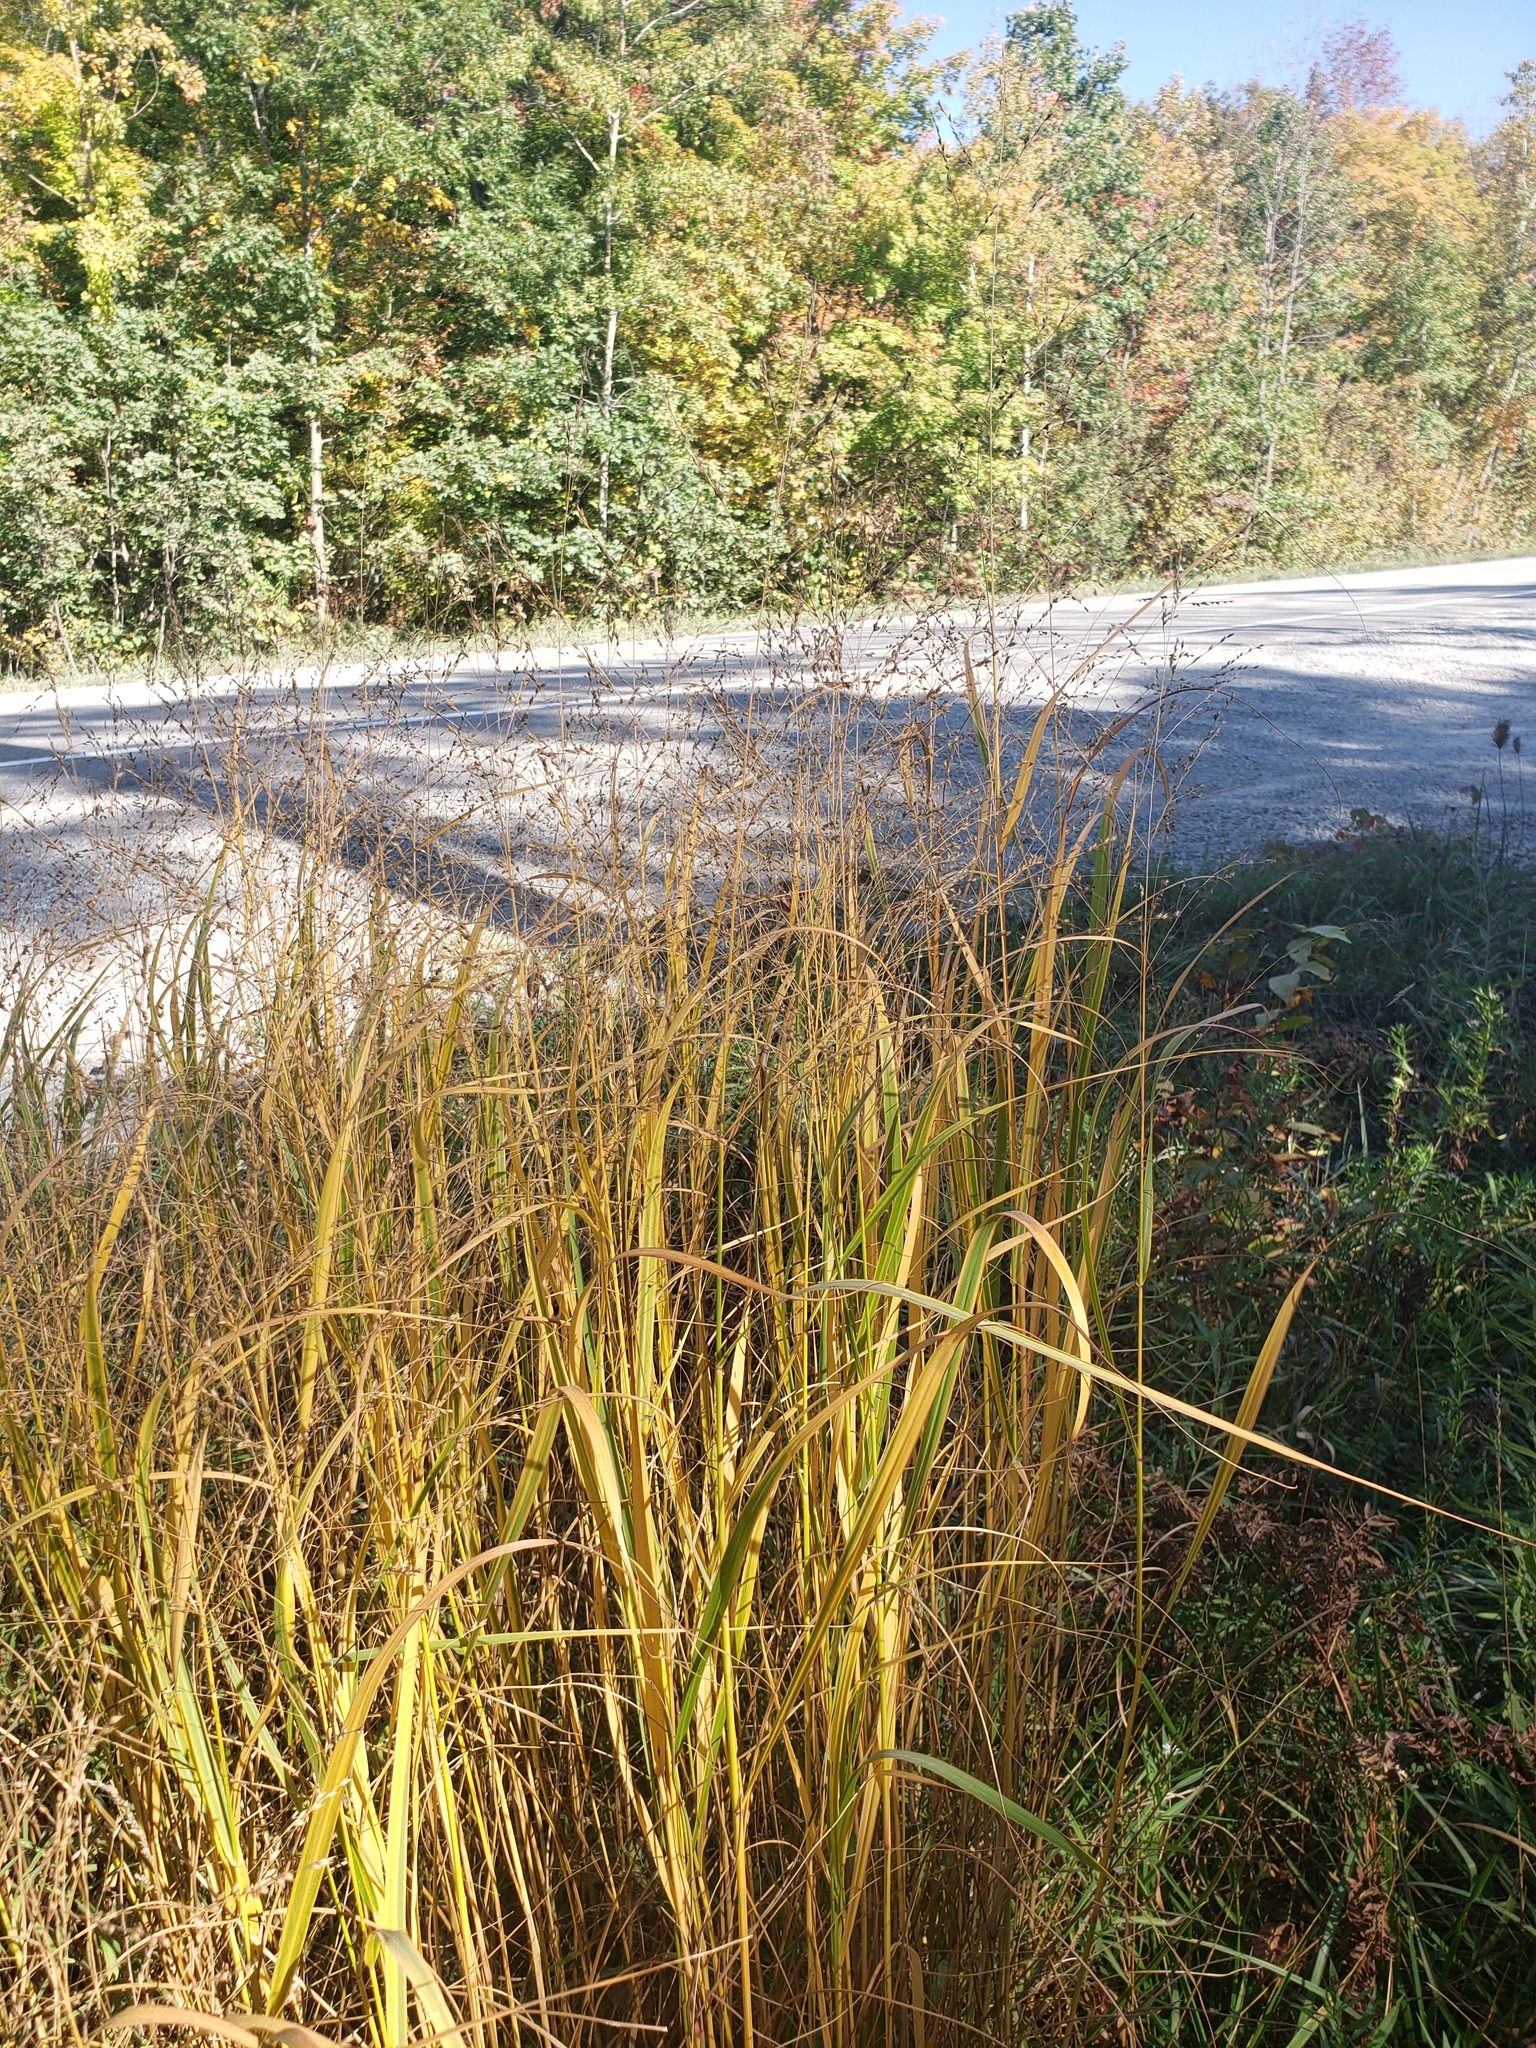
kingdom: Plantae
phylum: Tracheophyta
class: Liliopsida
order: Poales
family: Poaceae
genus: Panicum
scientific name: Panicum virgatum
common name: Switchgrass
